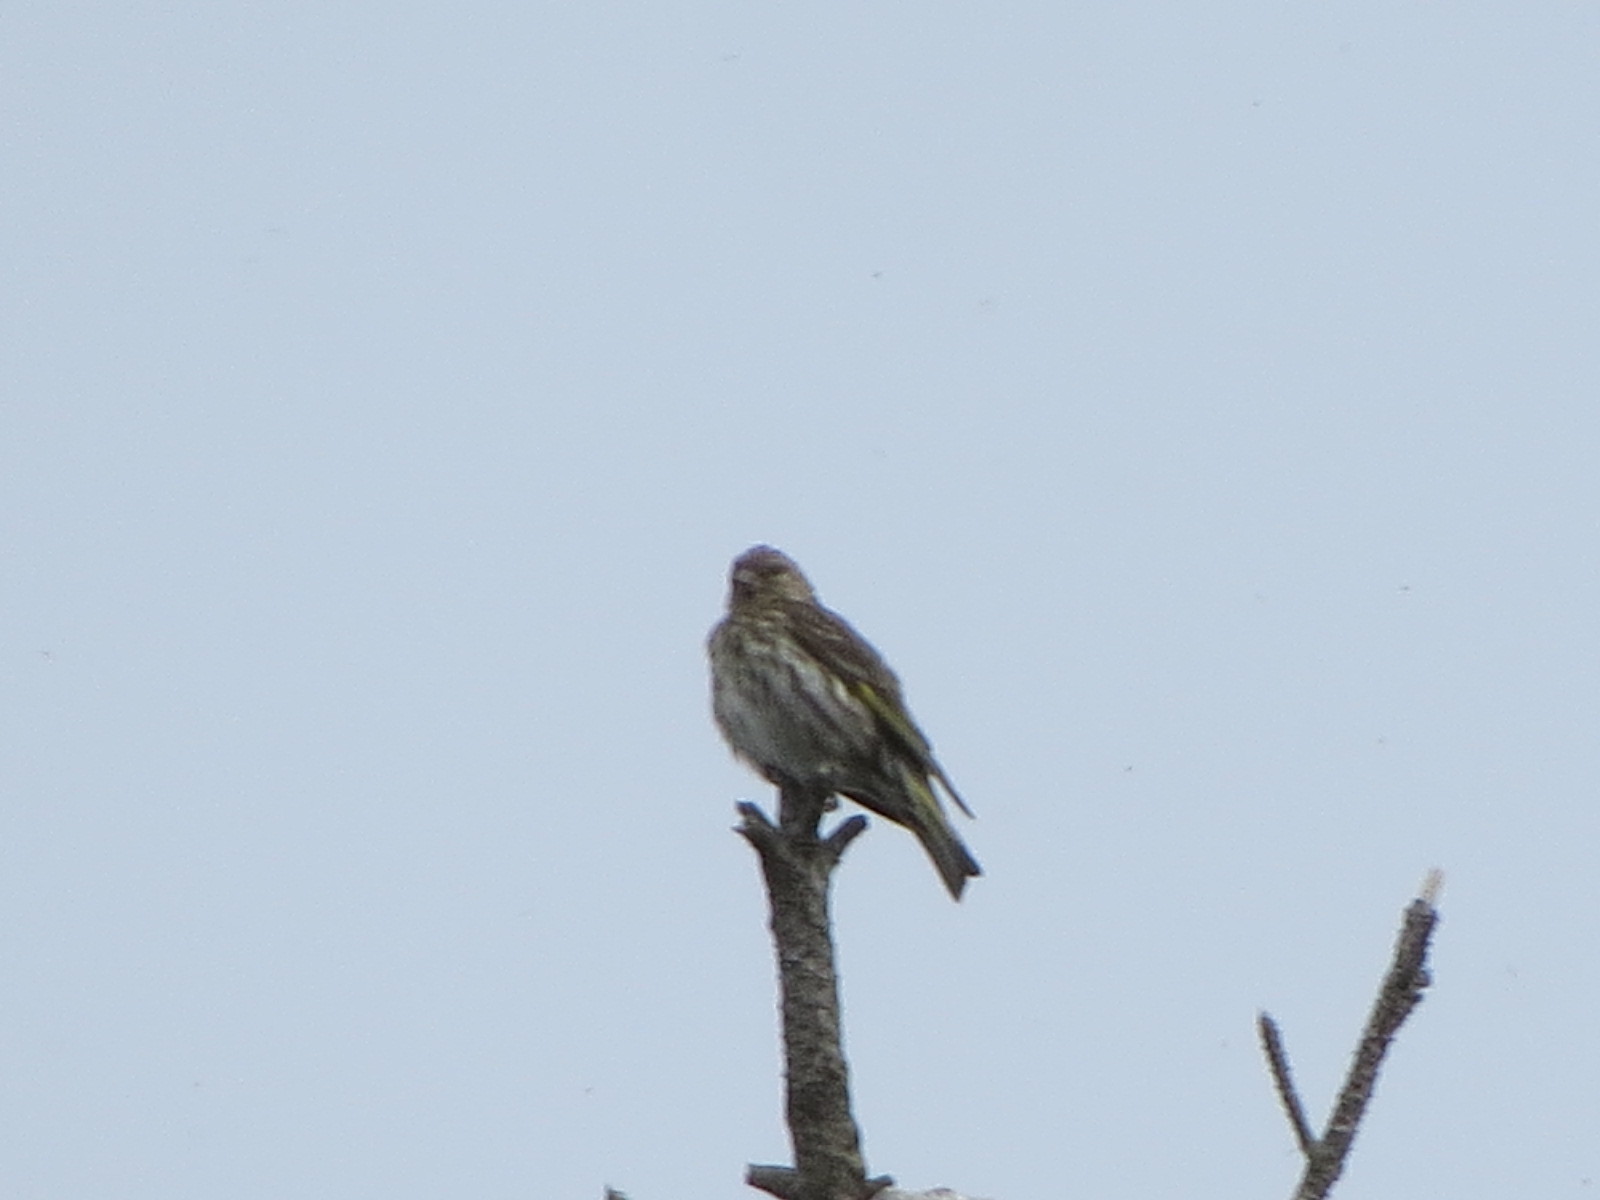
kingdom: Animalia
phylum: Chordata
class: Aves
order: Passeriformes
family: Fringillidae
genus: Spinus
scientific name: Spinus pinus
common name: Pine siskin
